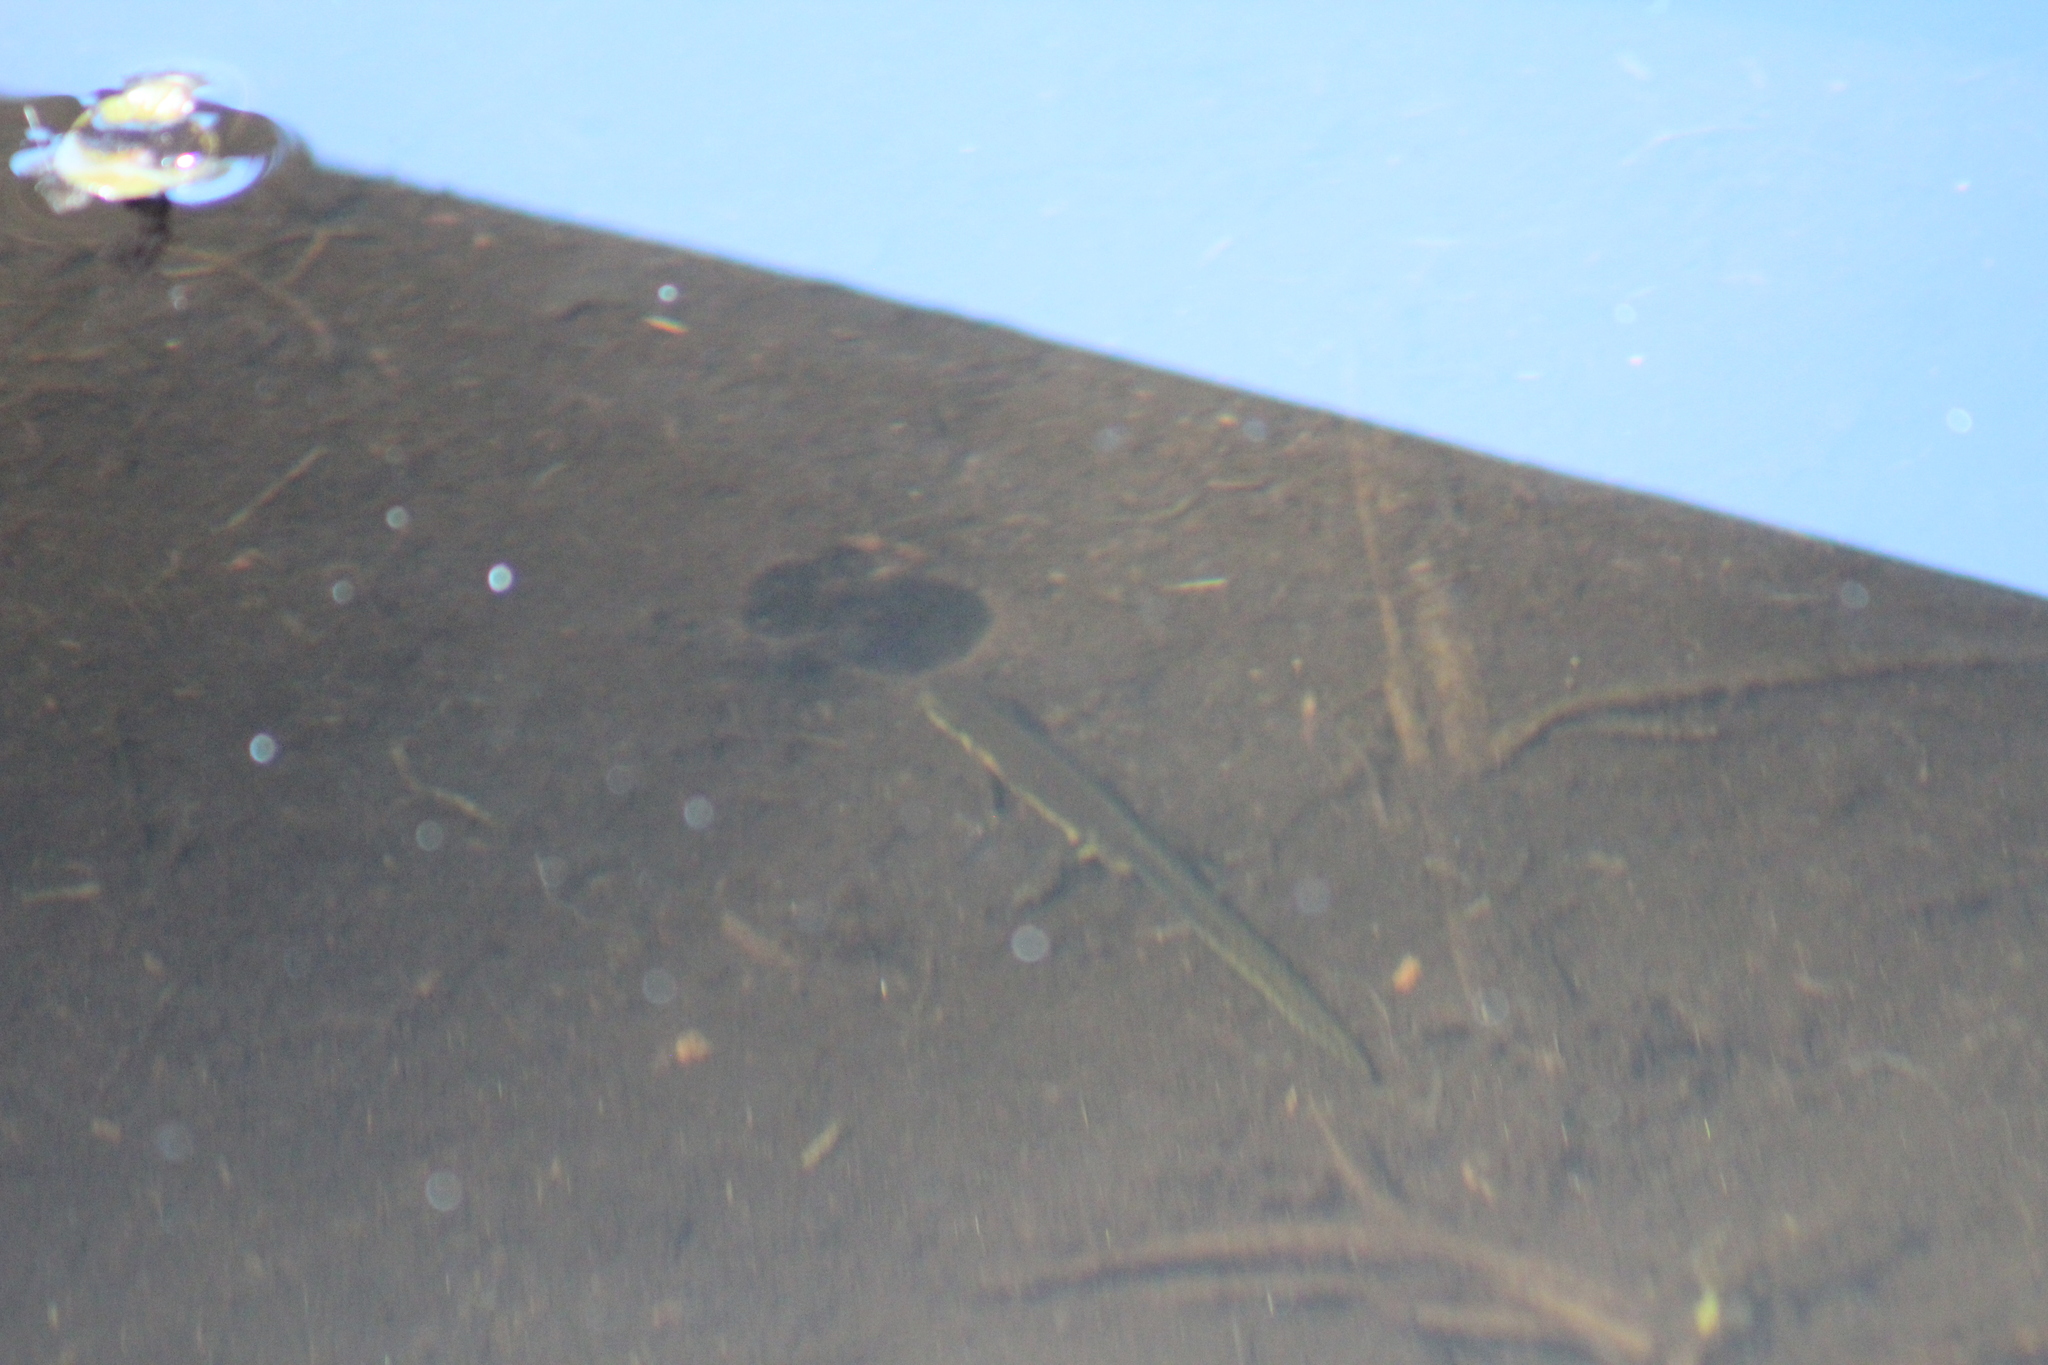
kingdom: Animalia
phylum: Chordata
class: Amphibia
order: Caudata
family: Salamandridae
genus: Notophthalmus
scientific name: Notophthalmus viridescens
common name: Eastern newt
